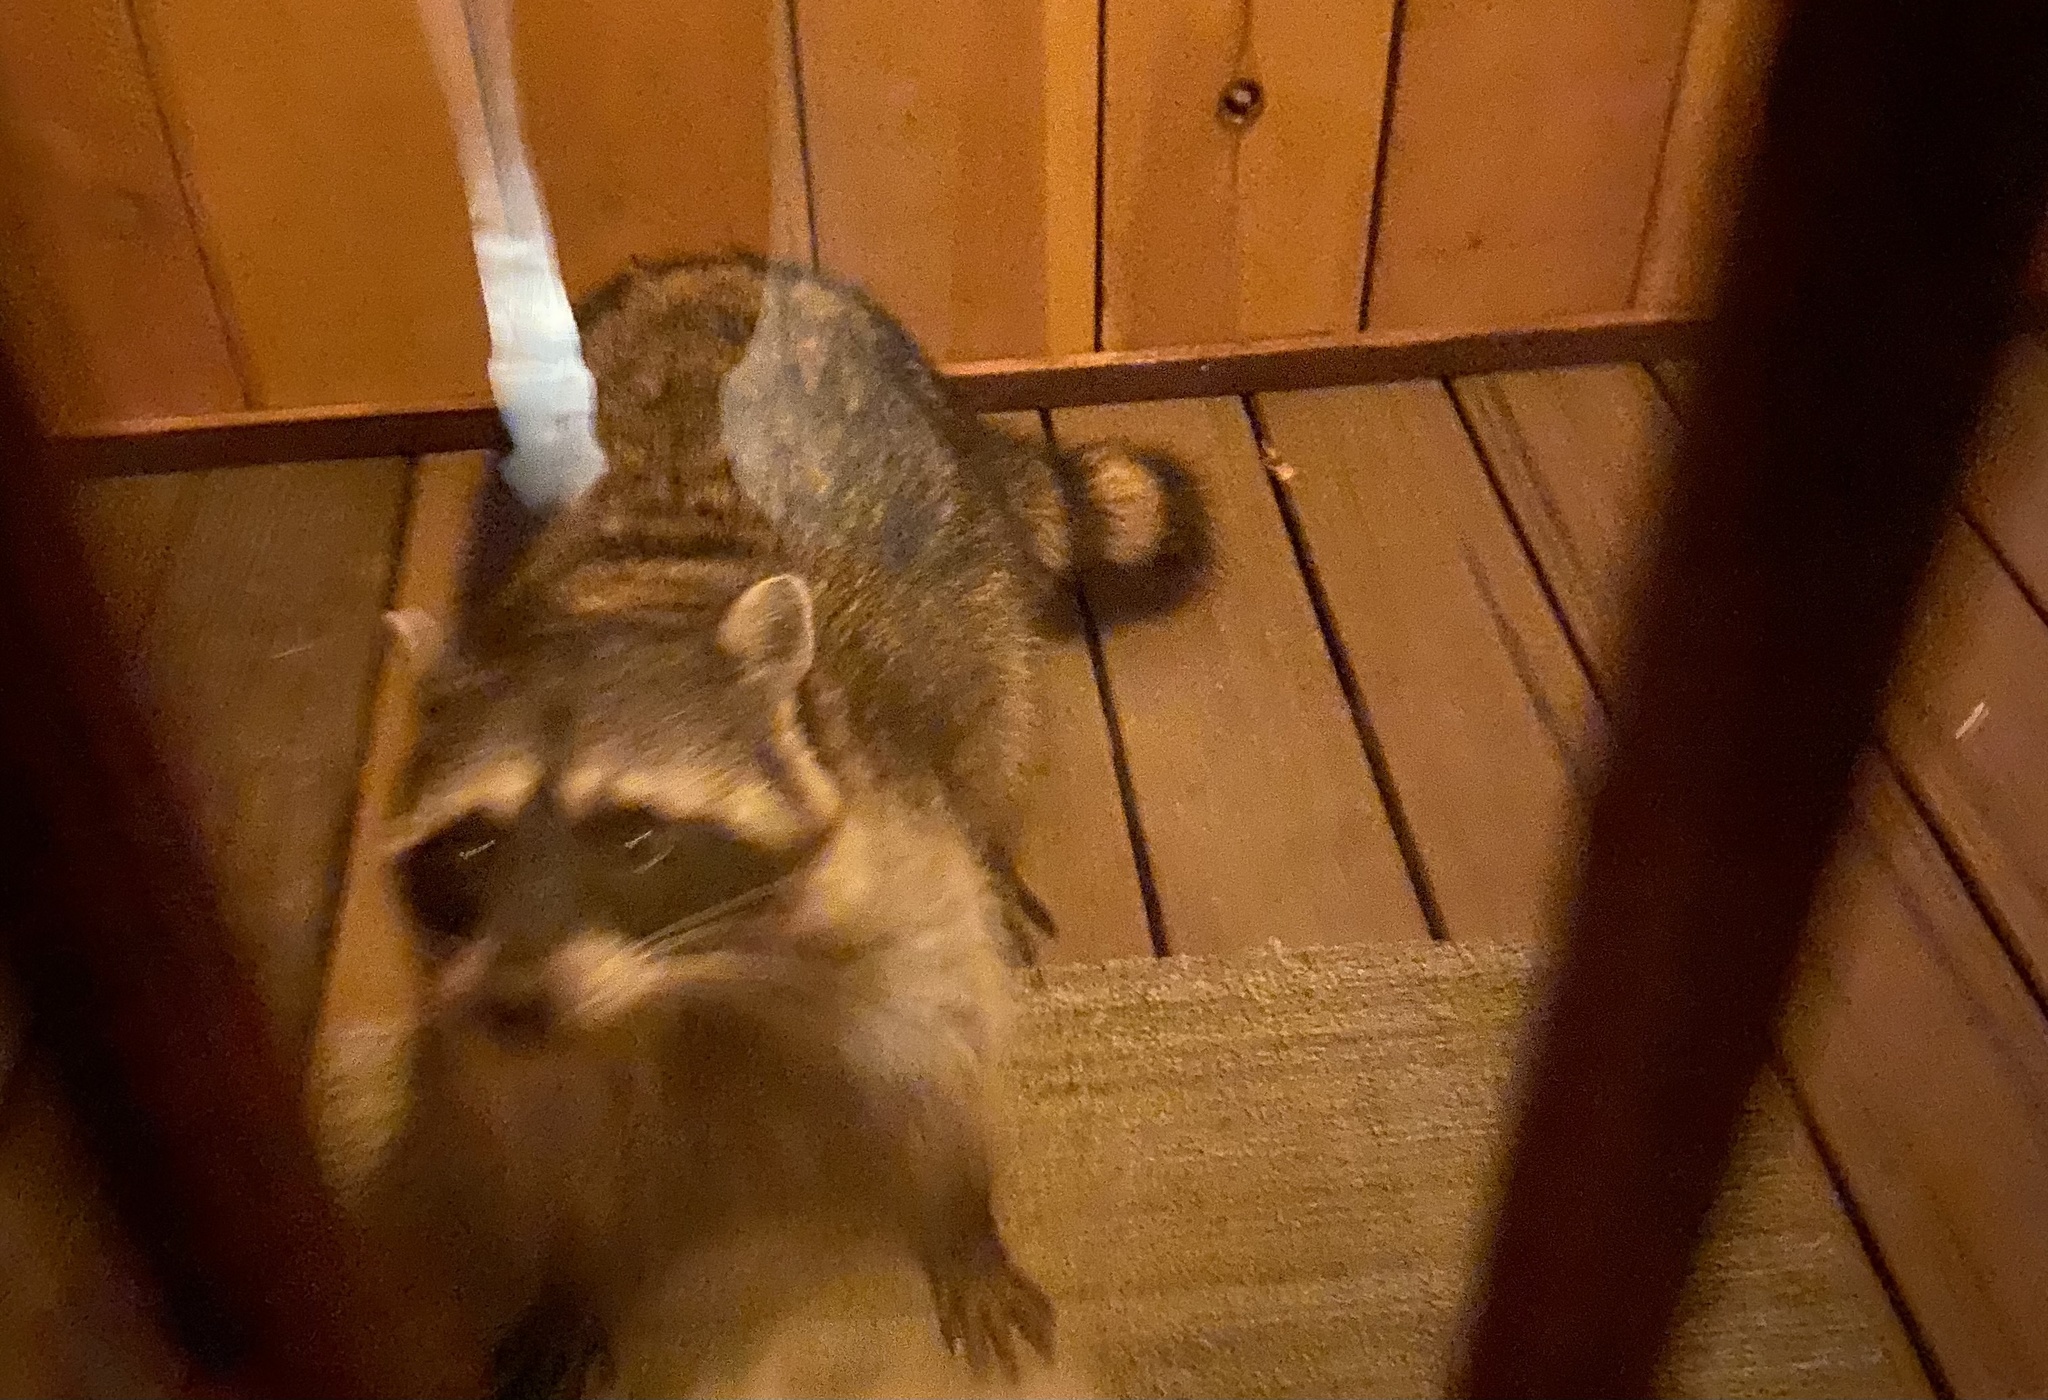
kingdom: Animalia
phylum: Chordata
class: Mammalia
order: Carnivora
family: Procyonidae
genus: Procyon
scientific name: Procyon lotor
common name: Raccoon
